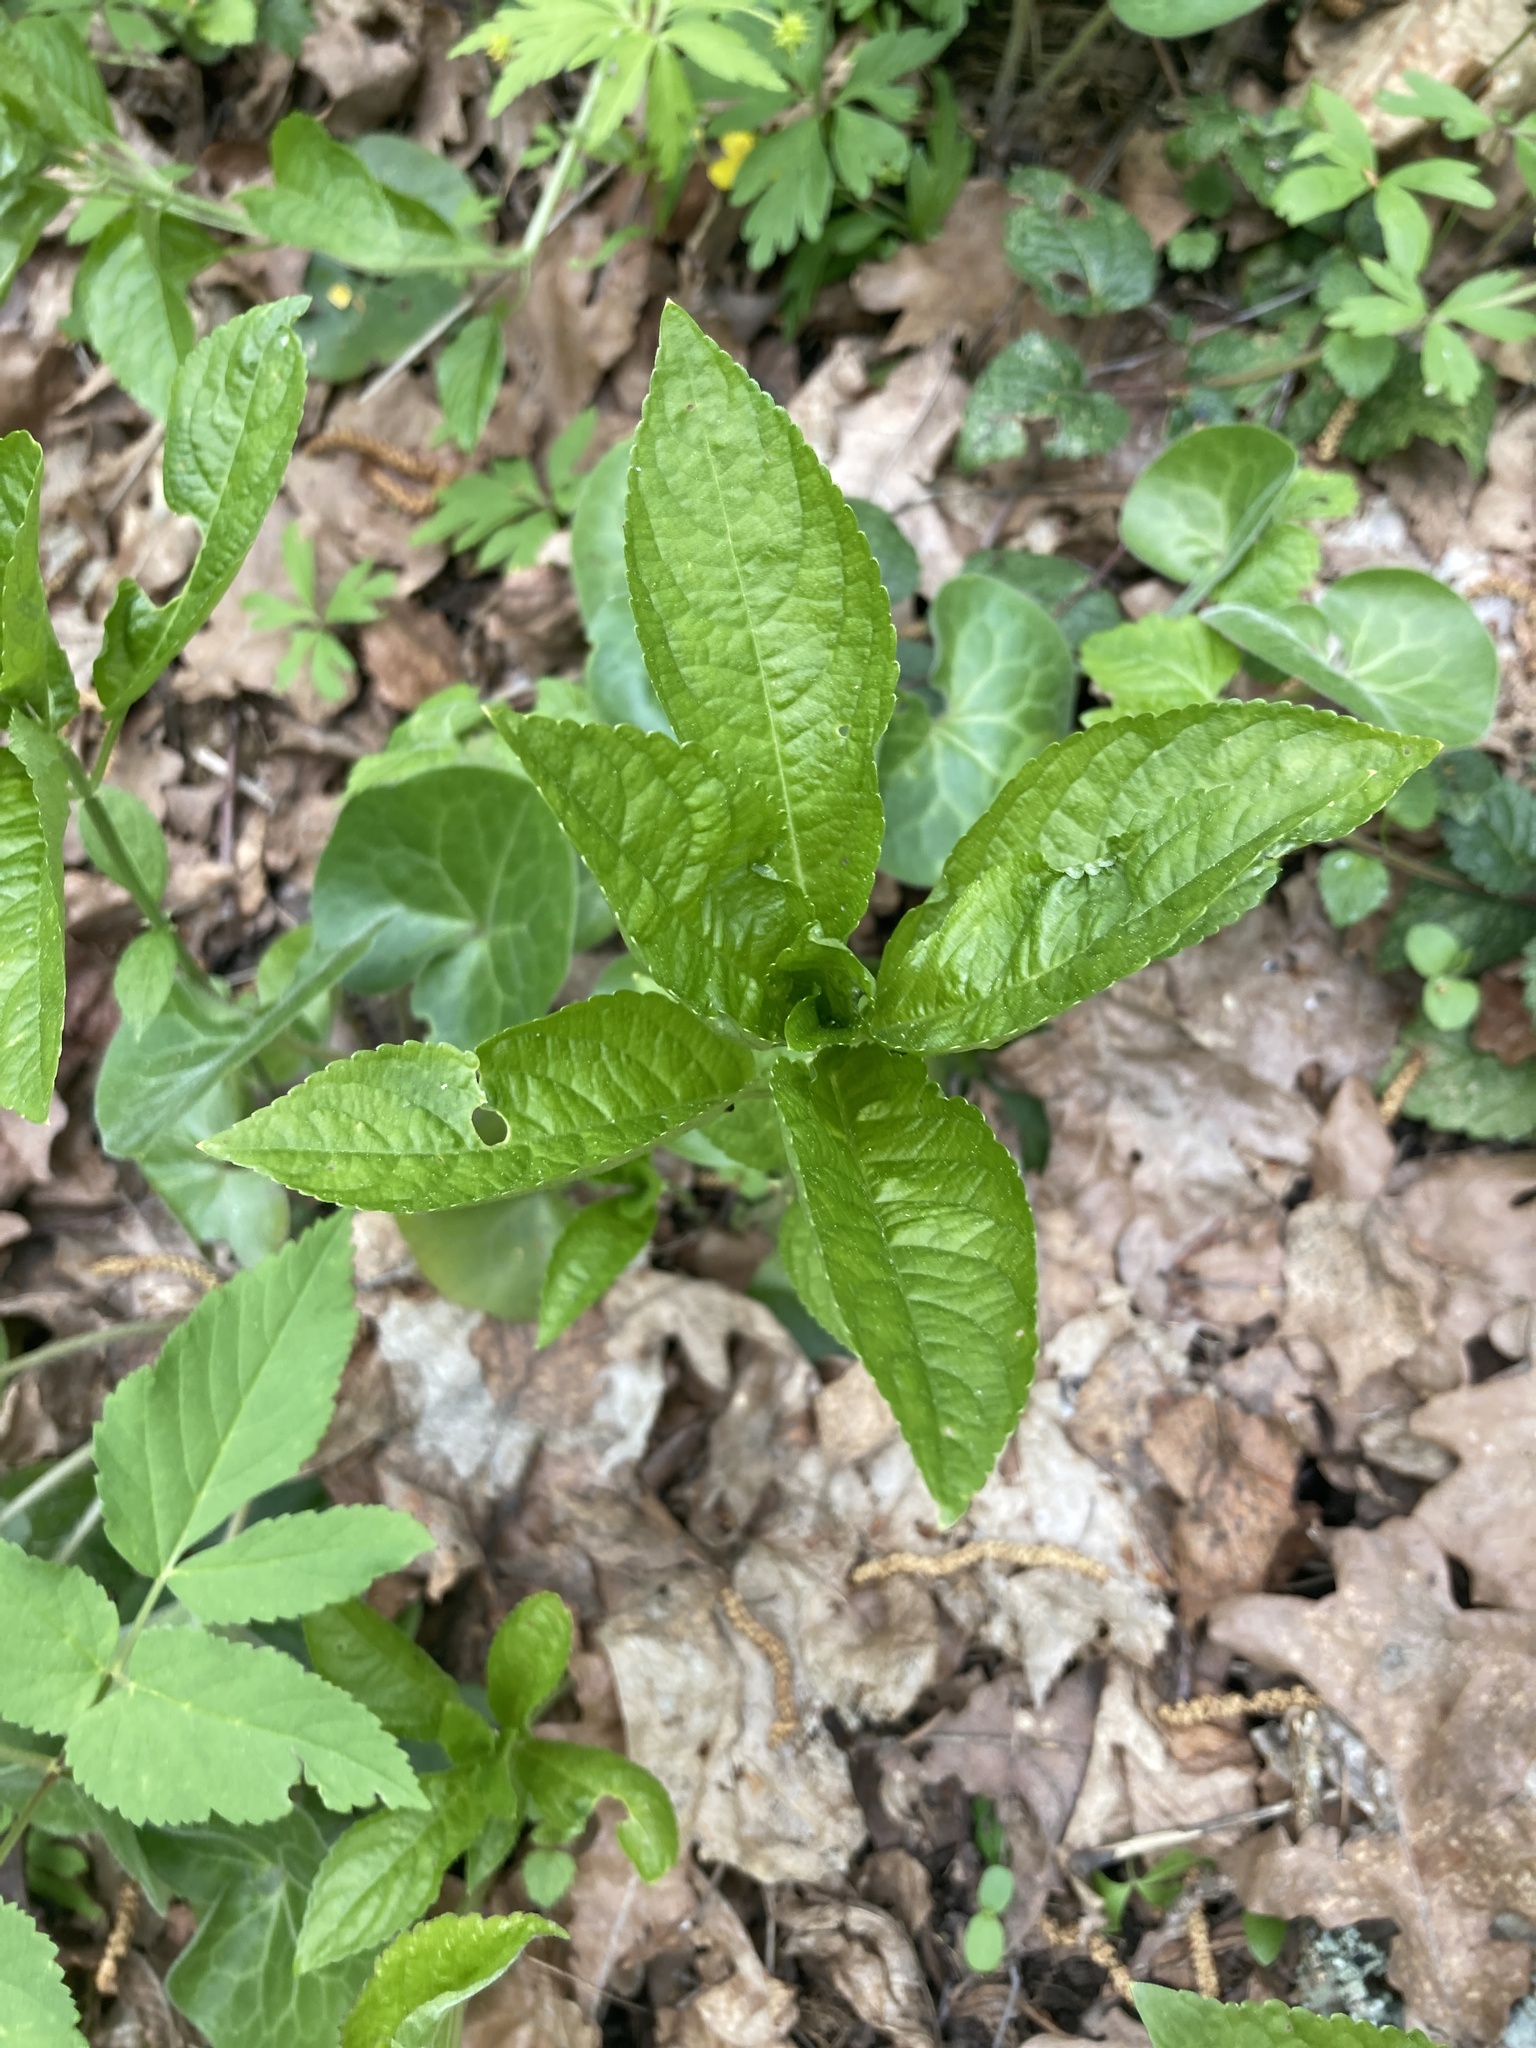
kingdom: Plantae
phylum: Tracheophyta
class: Magnoliopsida
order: Malpighiales
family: Euphorbiaceae
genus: Mercurialis
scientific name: Mercurialis perennis
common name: Dog mercury
